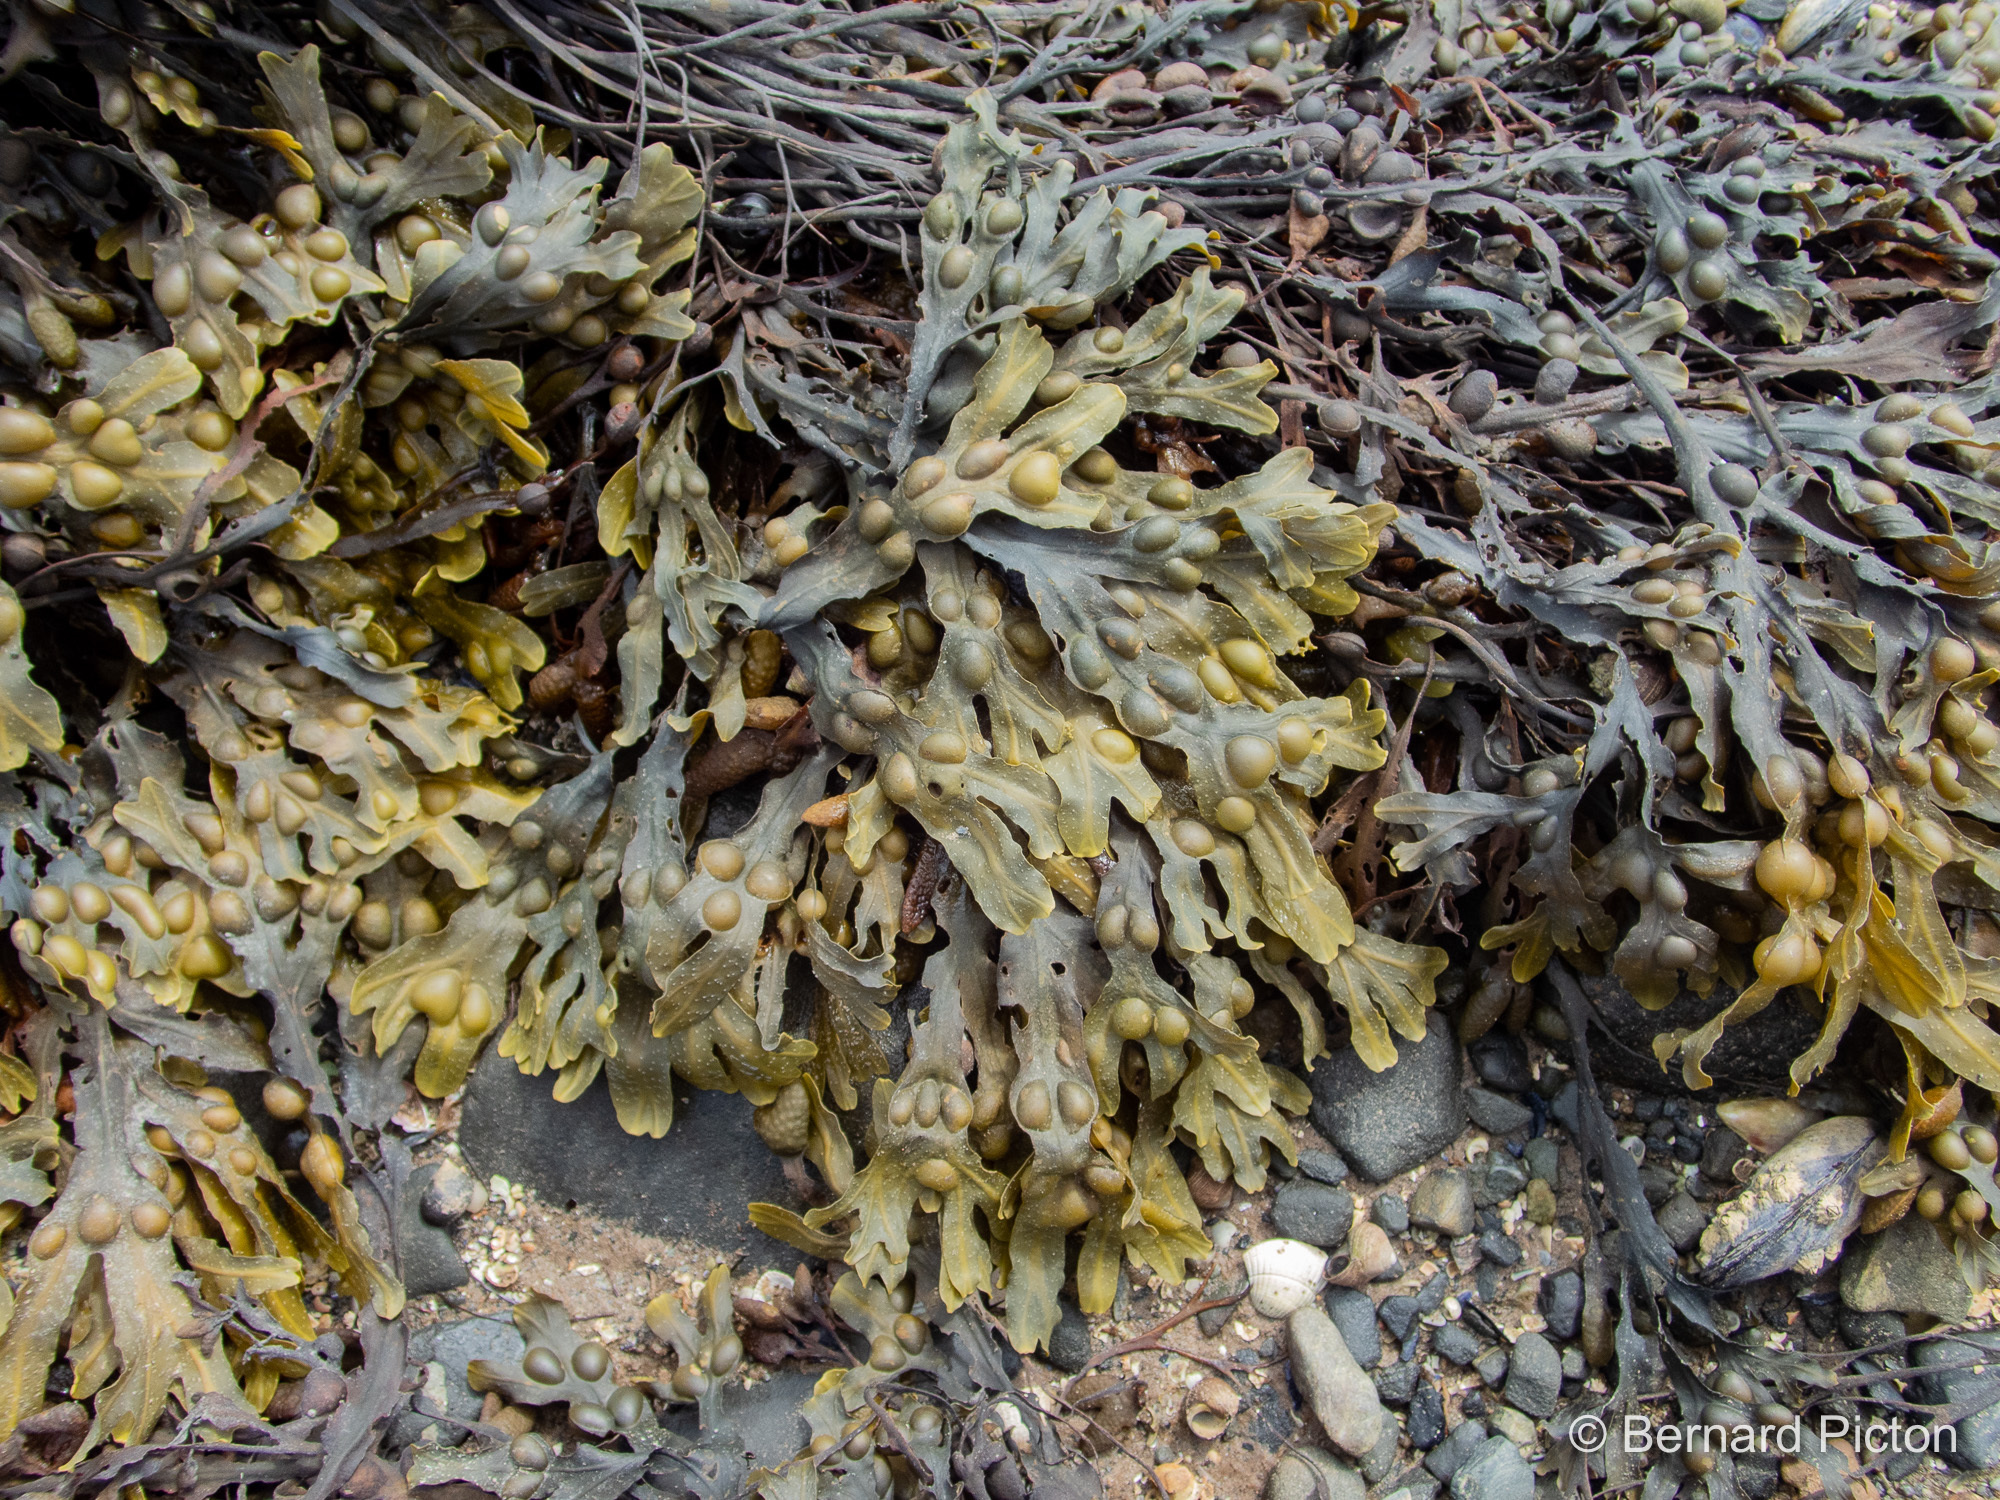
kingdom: Chromista
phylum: Ochrophyta
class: Phaeophyceae
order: Fucales
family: Fucaceae
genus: Fucus
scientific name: Fucus vesiculosus
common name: Bladder wrack
